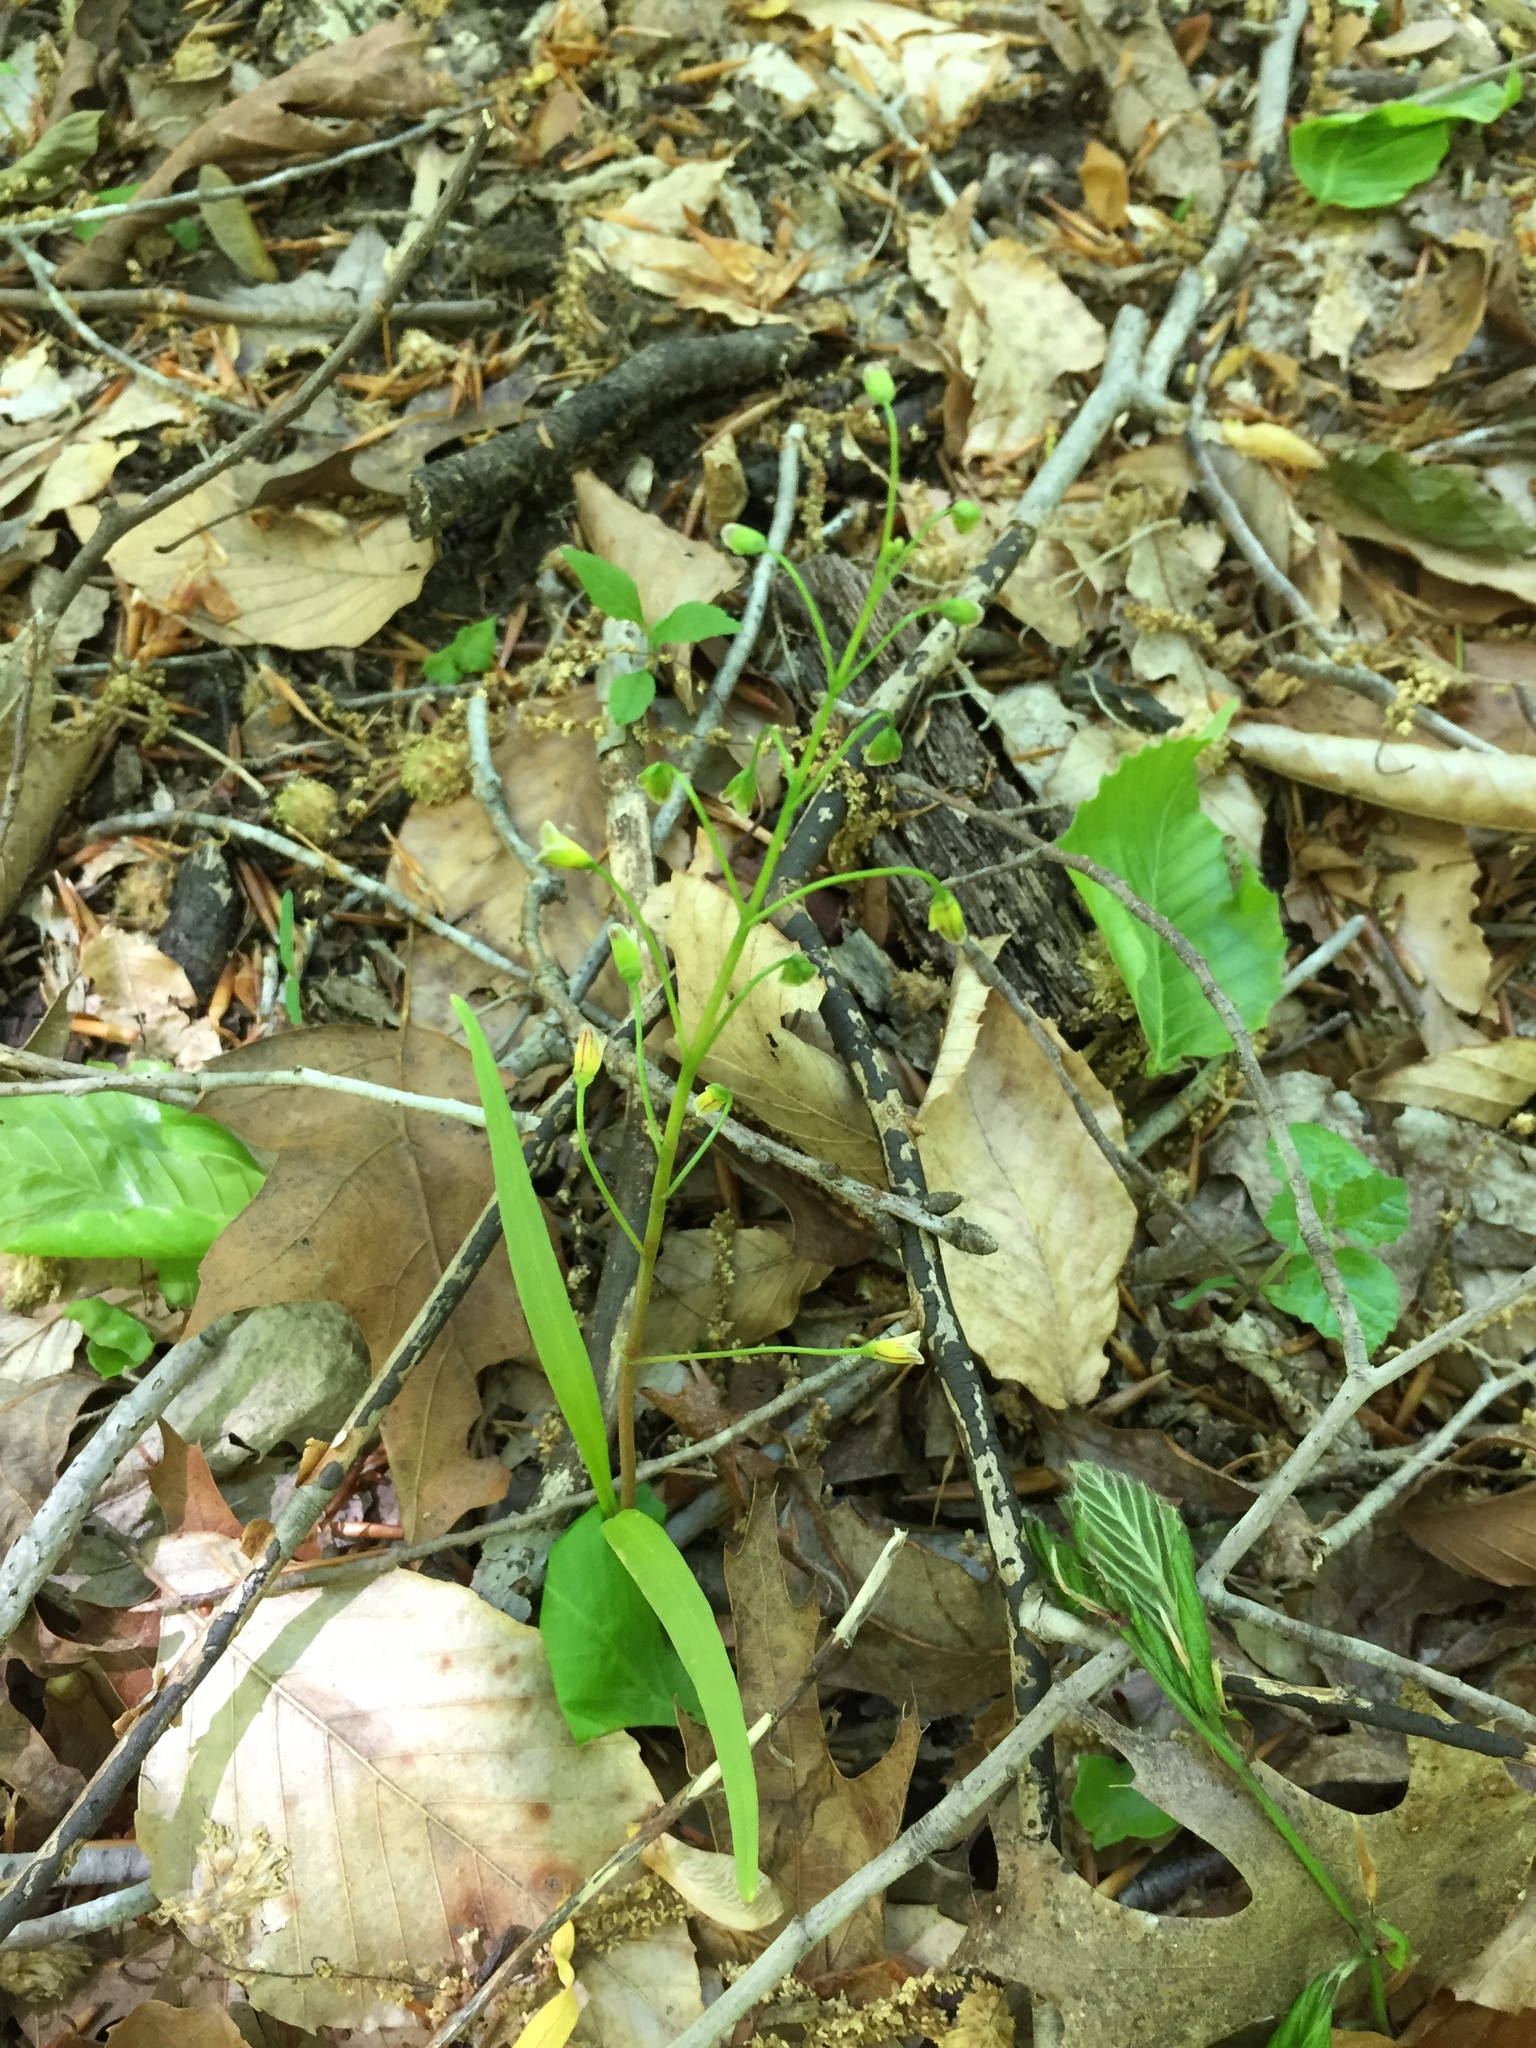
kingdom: Plantae
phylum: Tracheophyta
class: Magnoliopsida
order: Caryophyllales
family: Montiaceae
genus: Claytonia
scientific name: Claytonia virginica
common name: Virginia springbeauty
